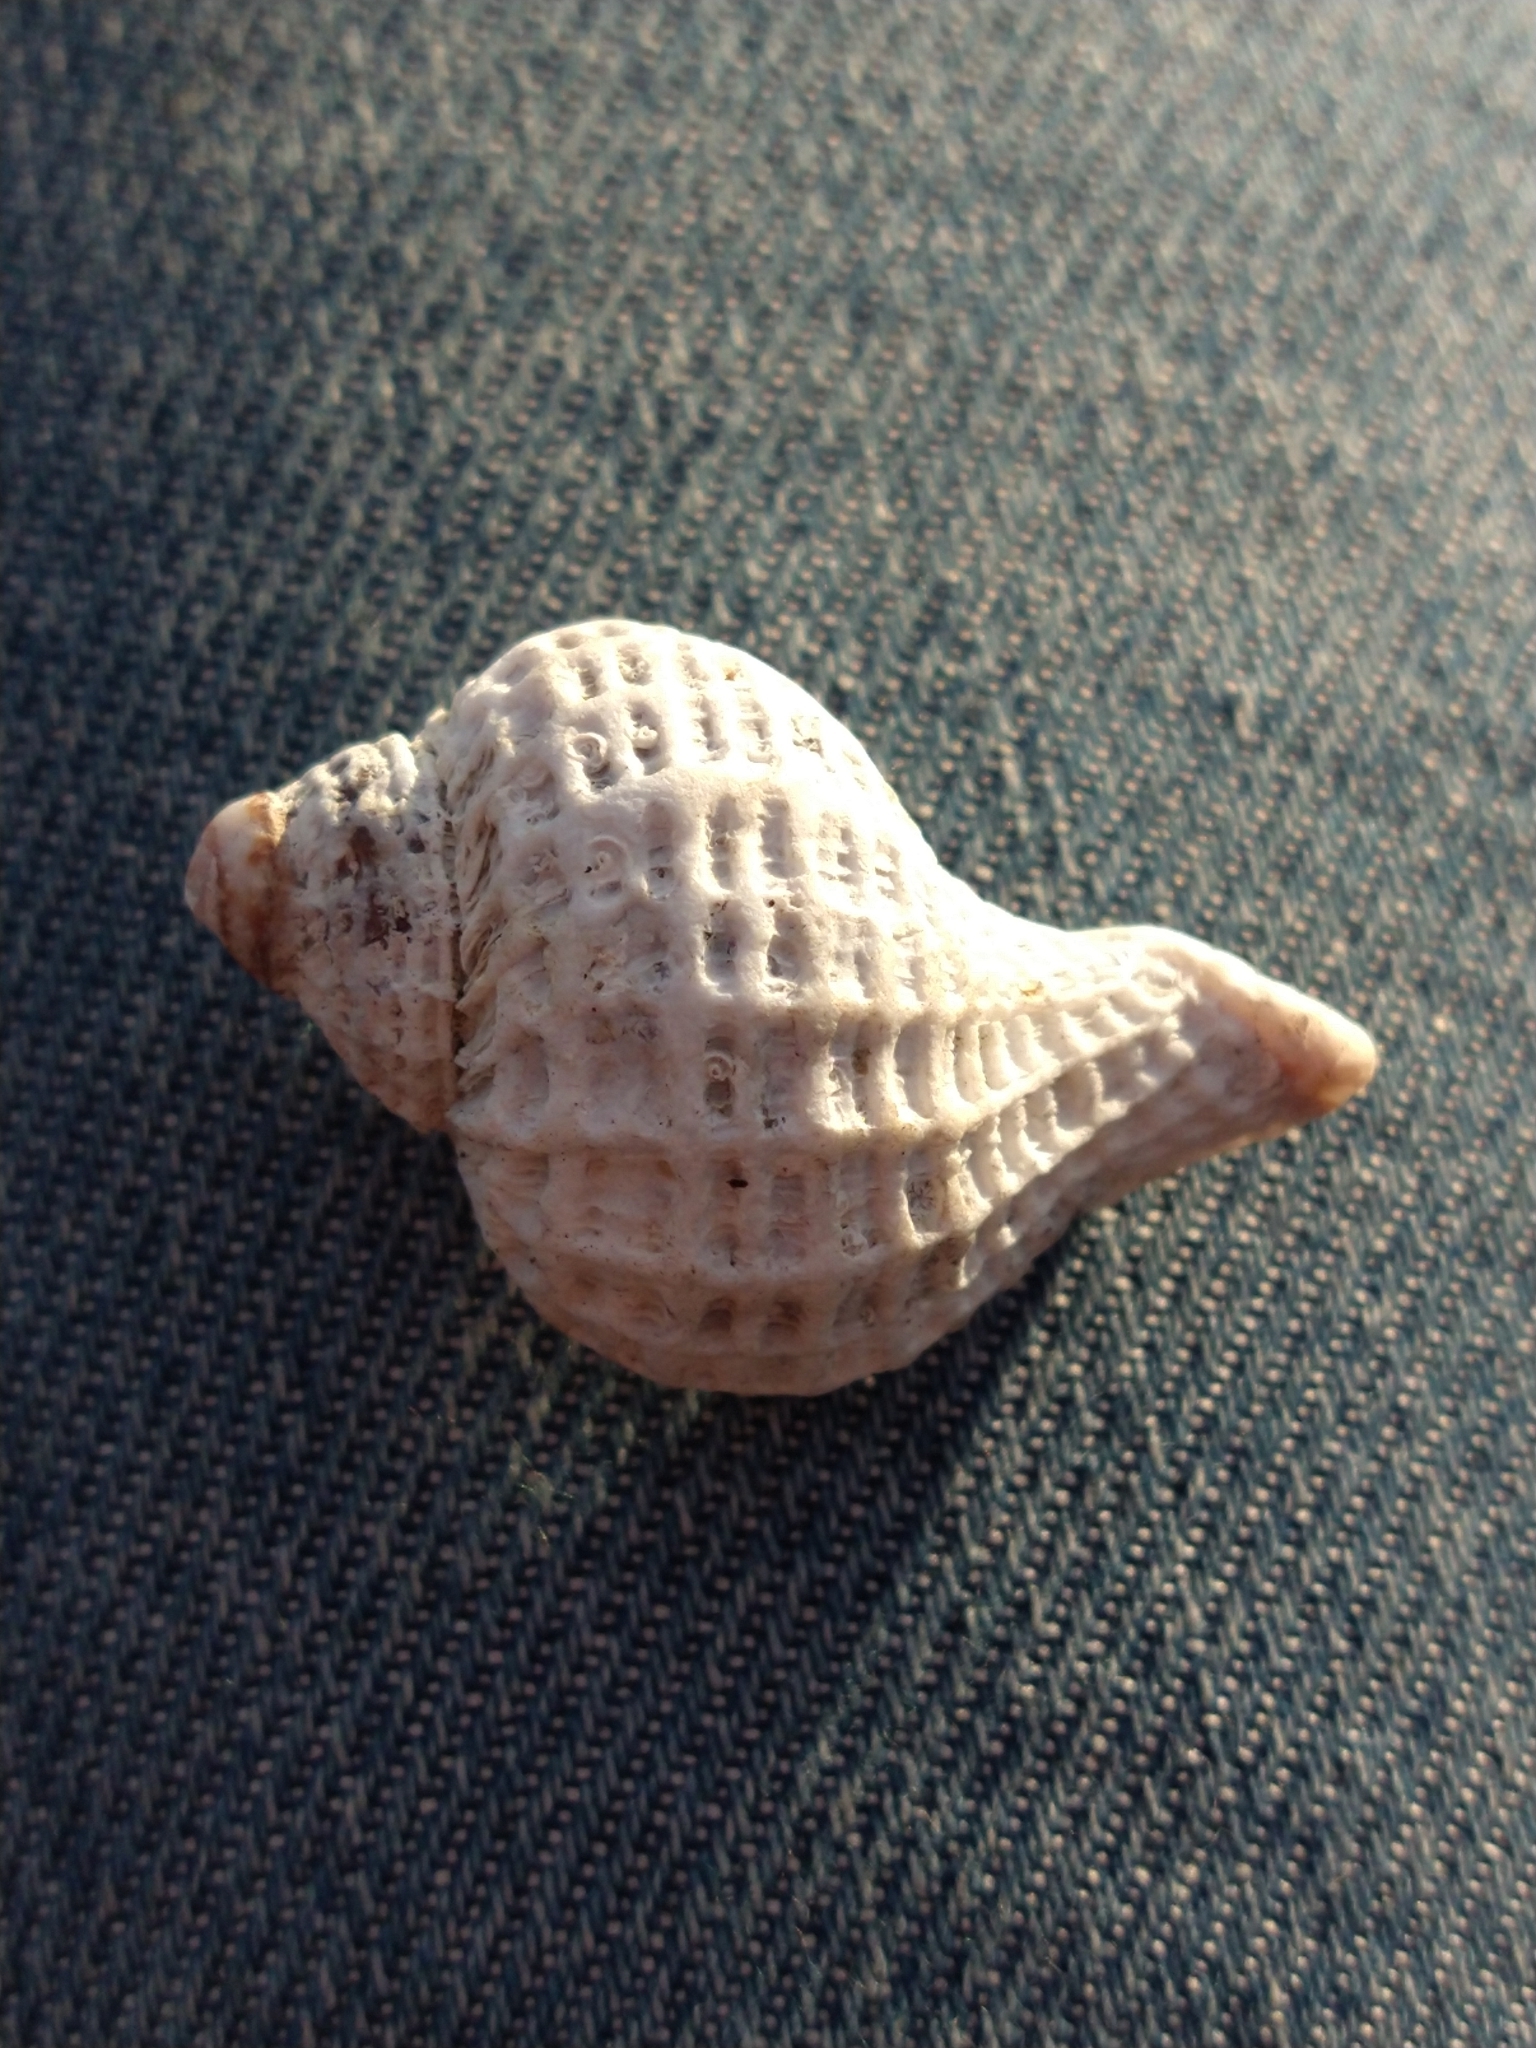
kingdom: Animalia
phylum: Mollusca
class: Gastropoda
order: Neogastropoda
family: Muricidae
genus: Trophon
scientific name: Trophon geversianus
